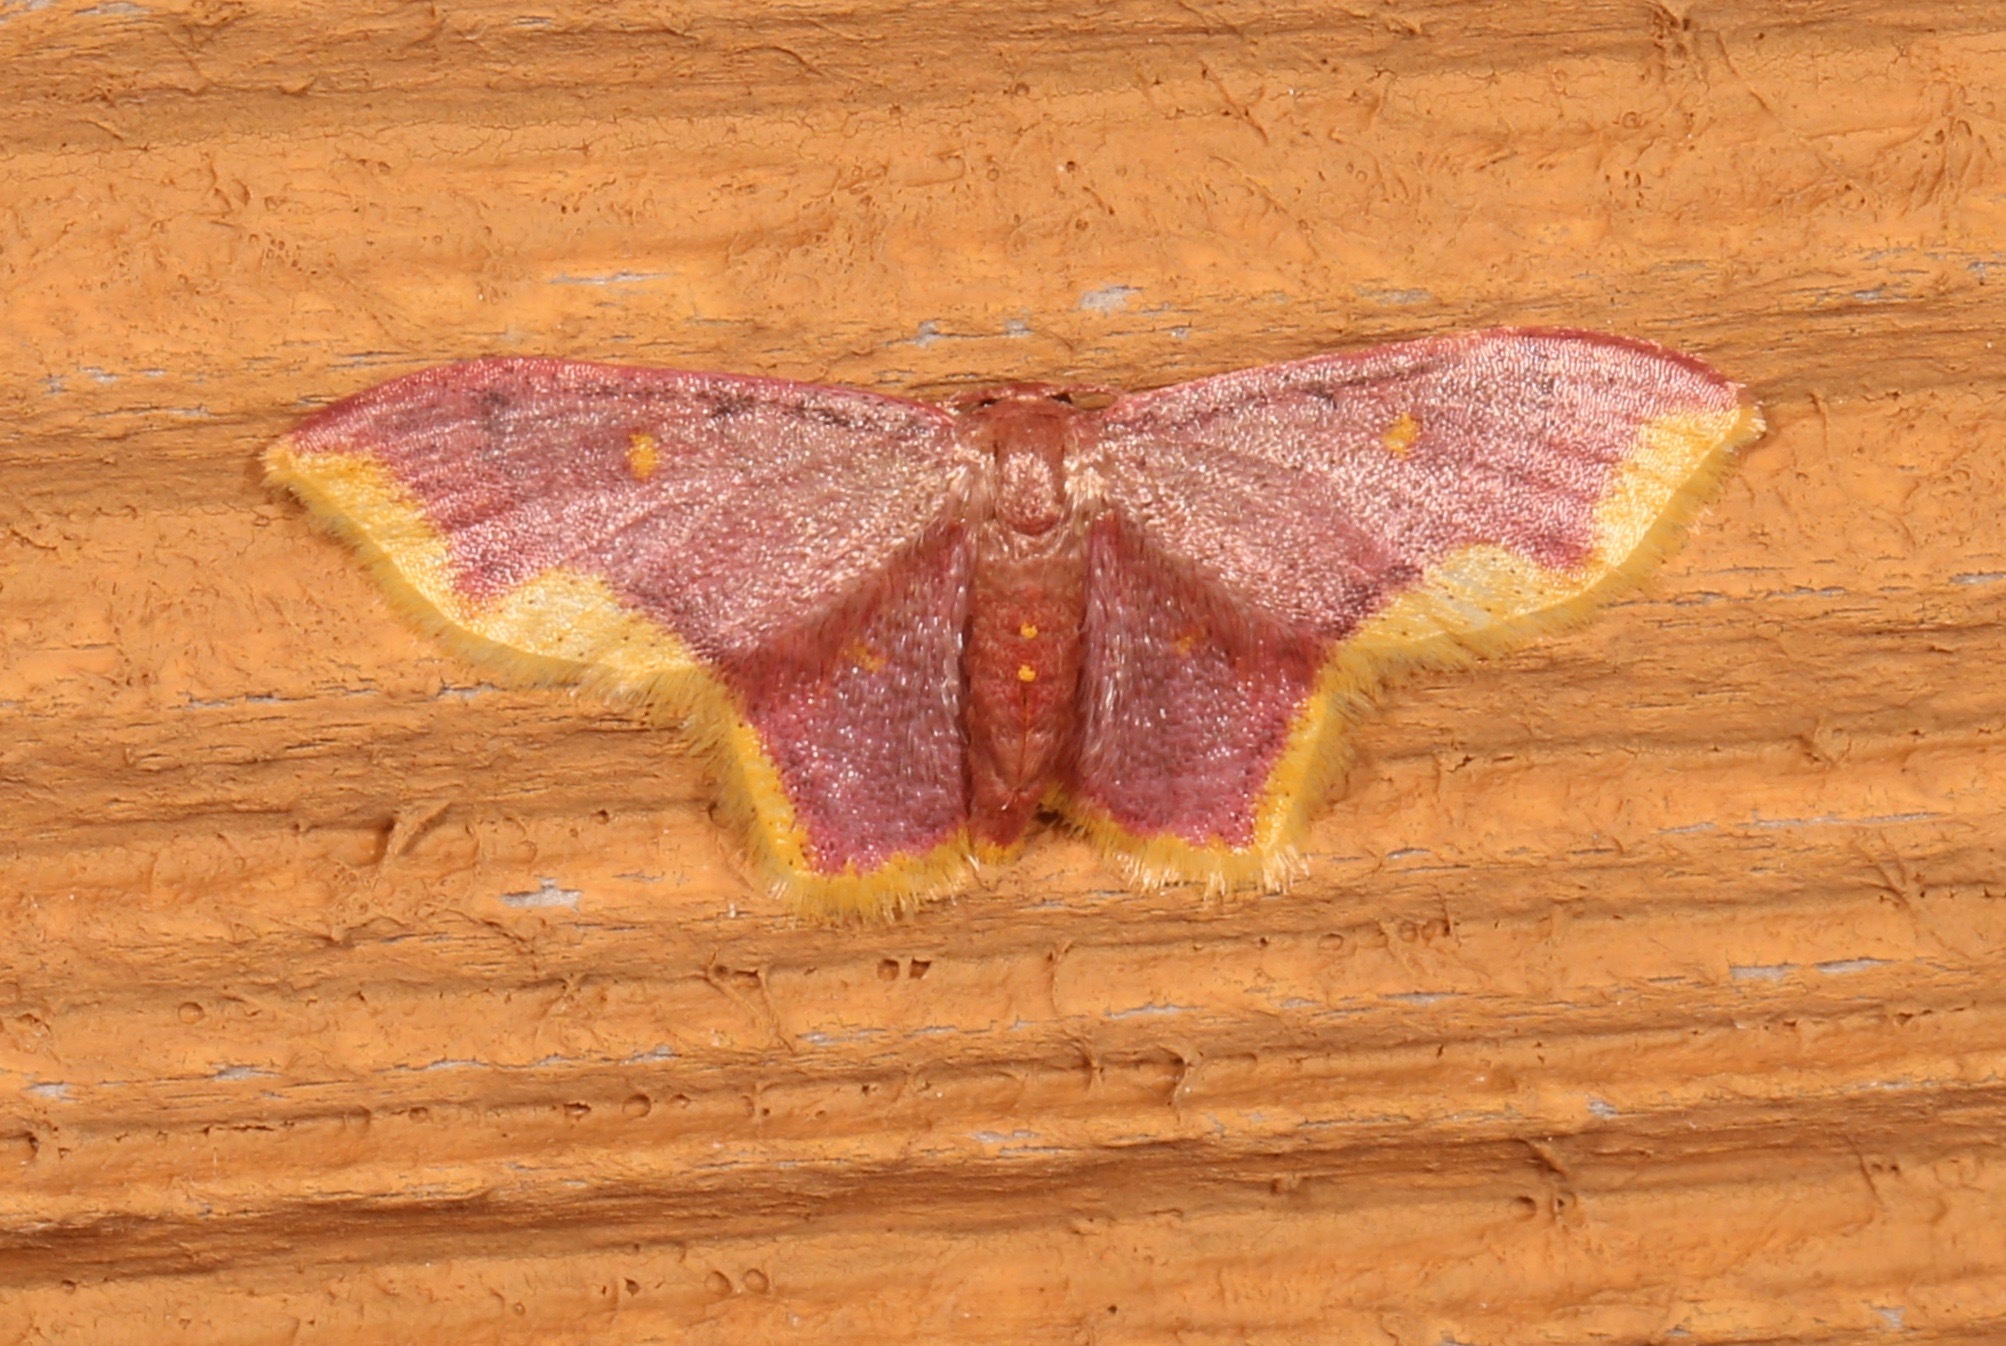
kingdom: Animalia
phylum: Arthropoda
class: Insecta
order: Lepidoptera
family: Geometridae
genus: Lophosis
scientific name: Lophosis labeculata
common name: Stained lophosis moth
